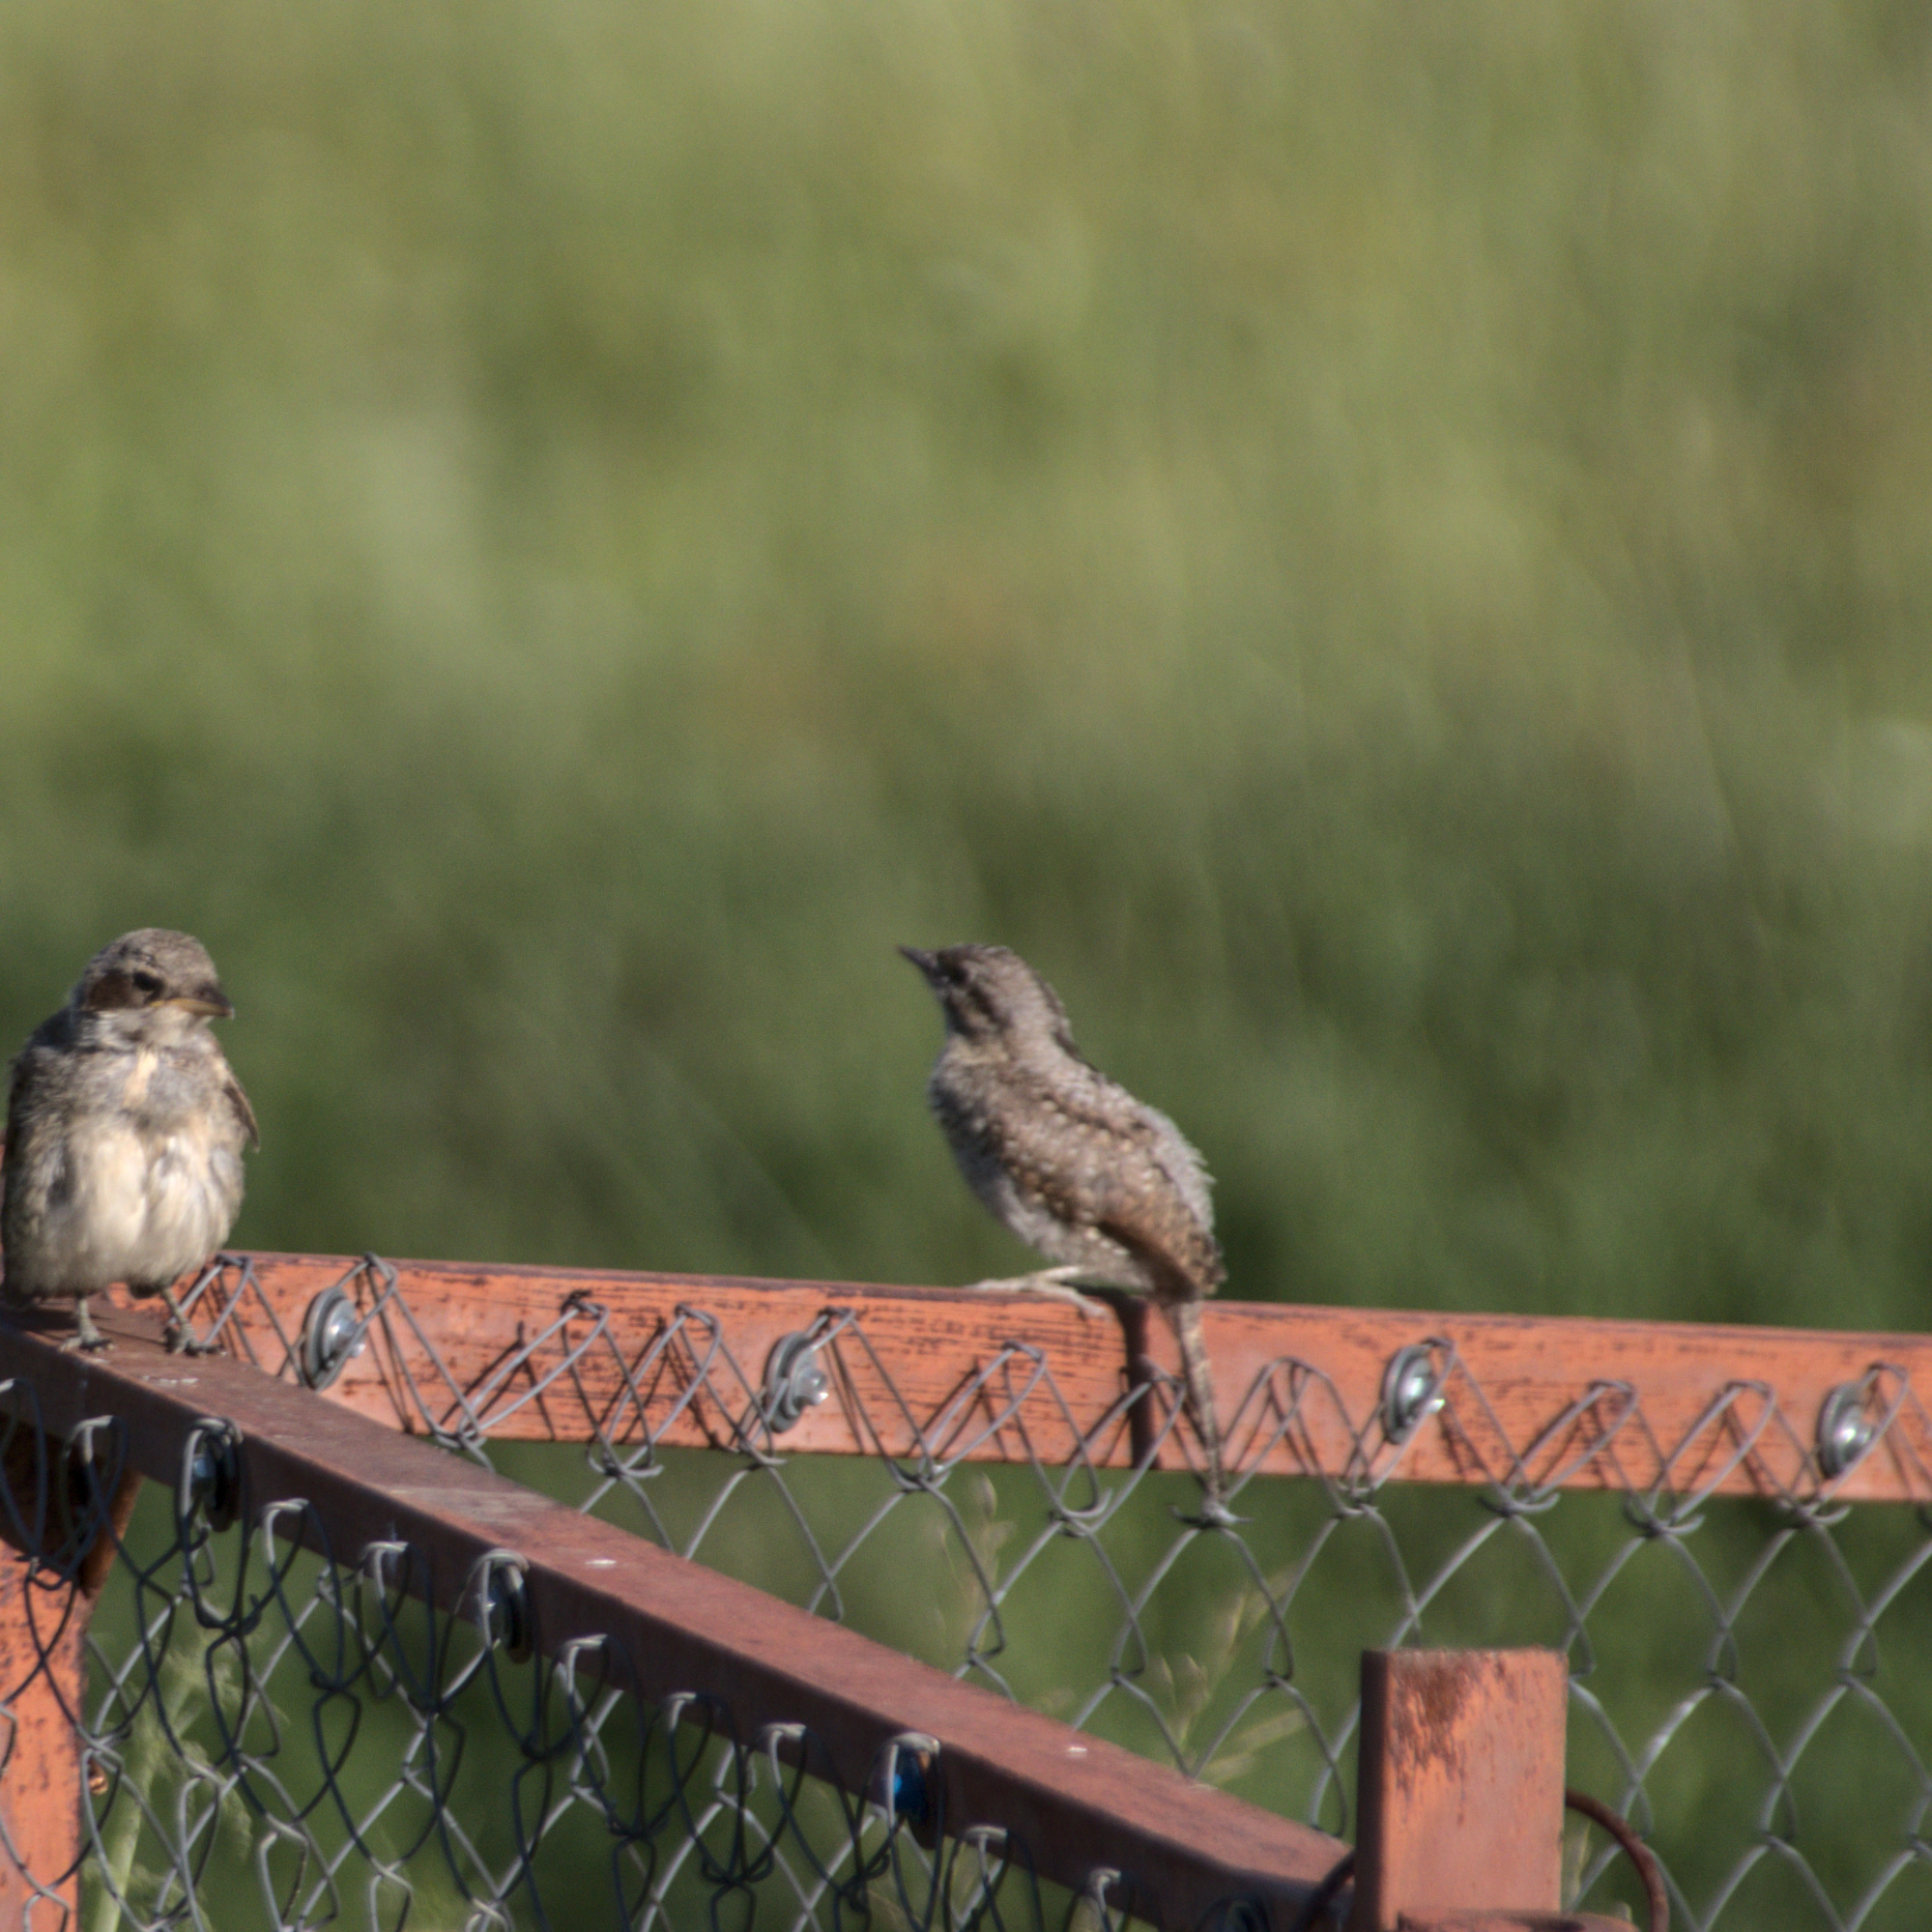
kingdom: Animalia
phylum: Chordata
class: Aves
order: Piciformes
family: Picidae
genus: Jynx
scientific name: Jynx torquilla
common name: Eurasian wryneck
